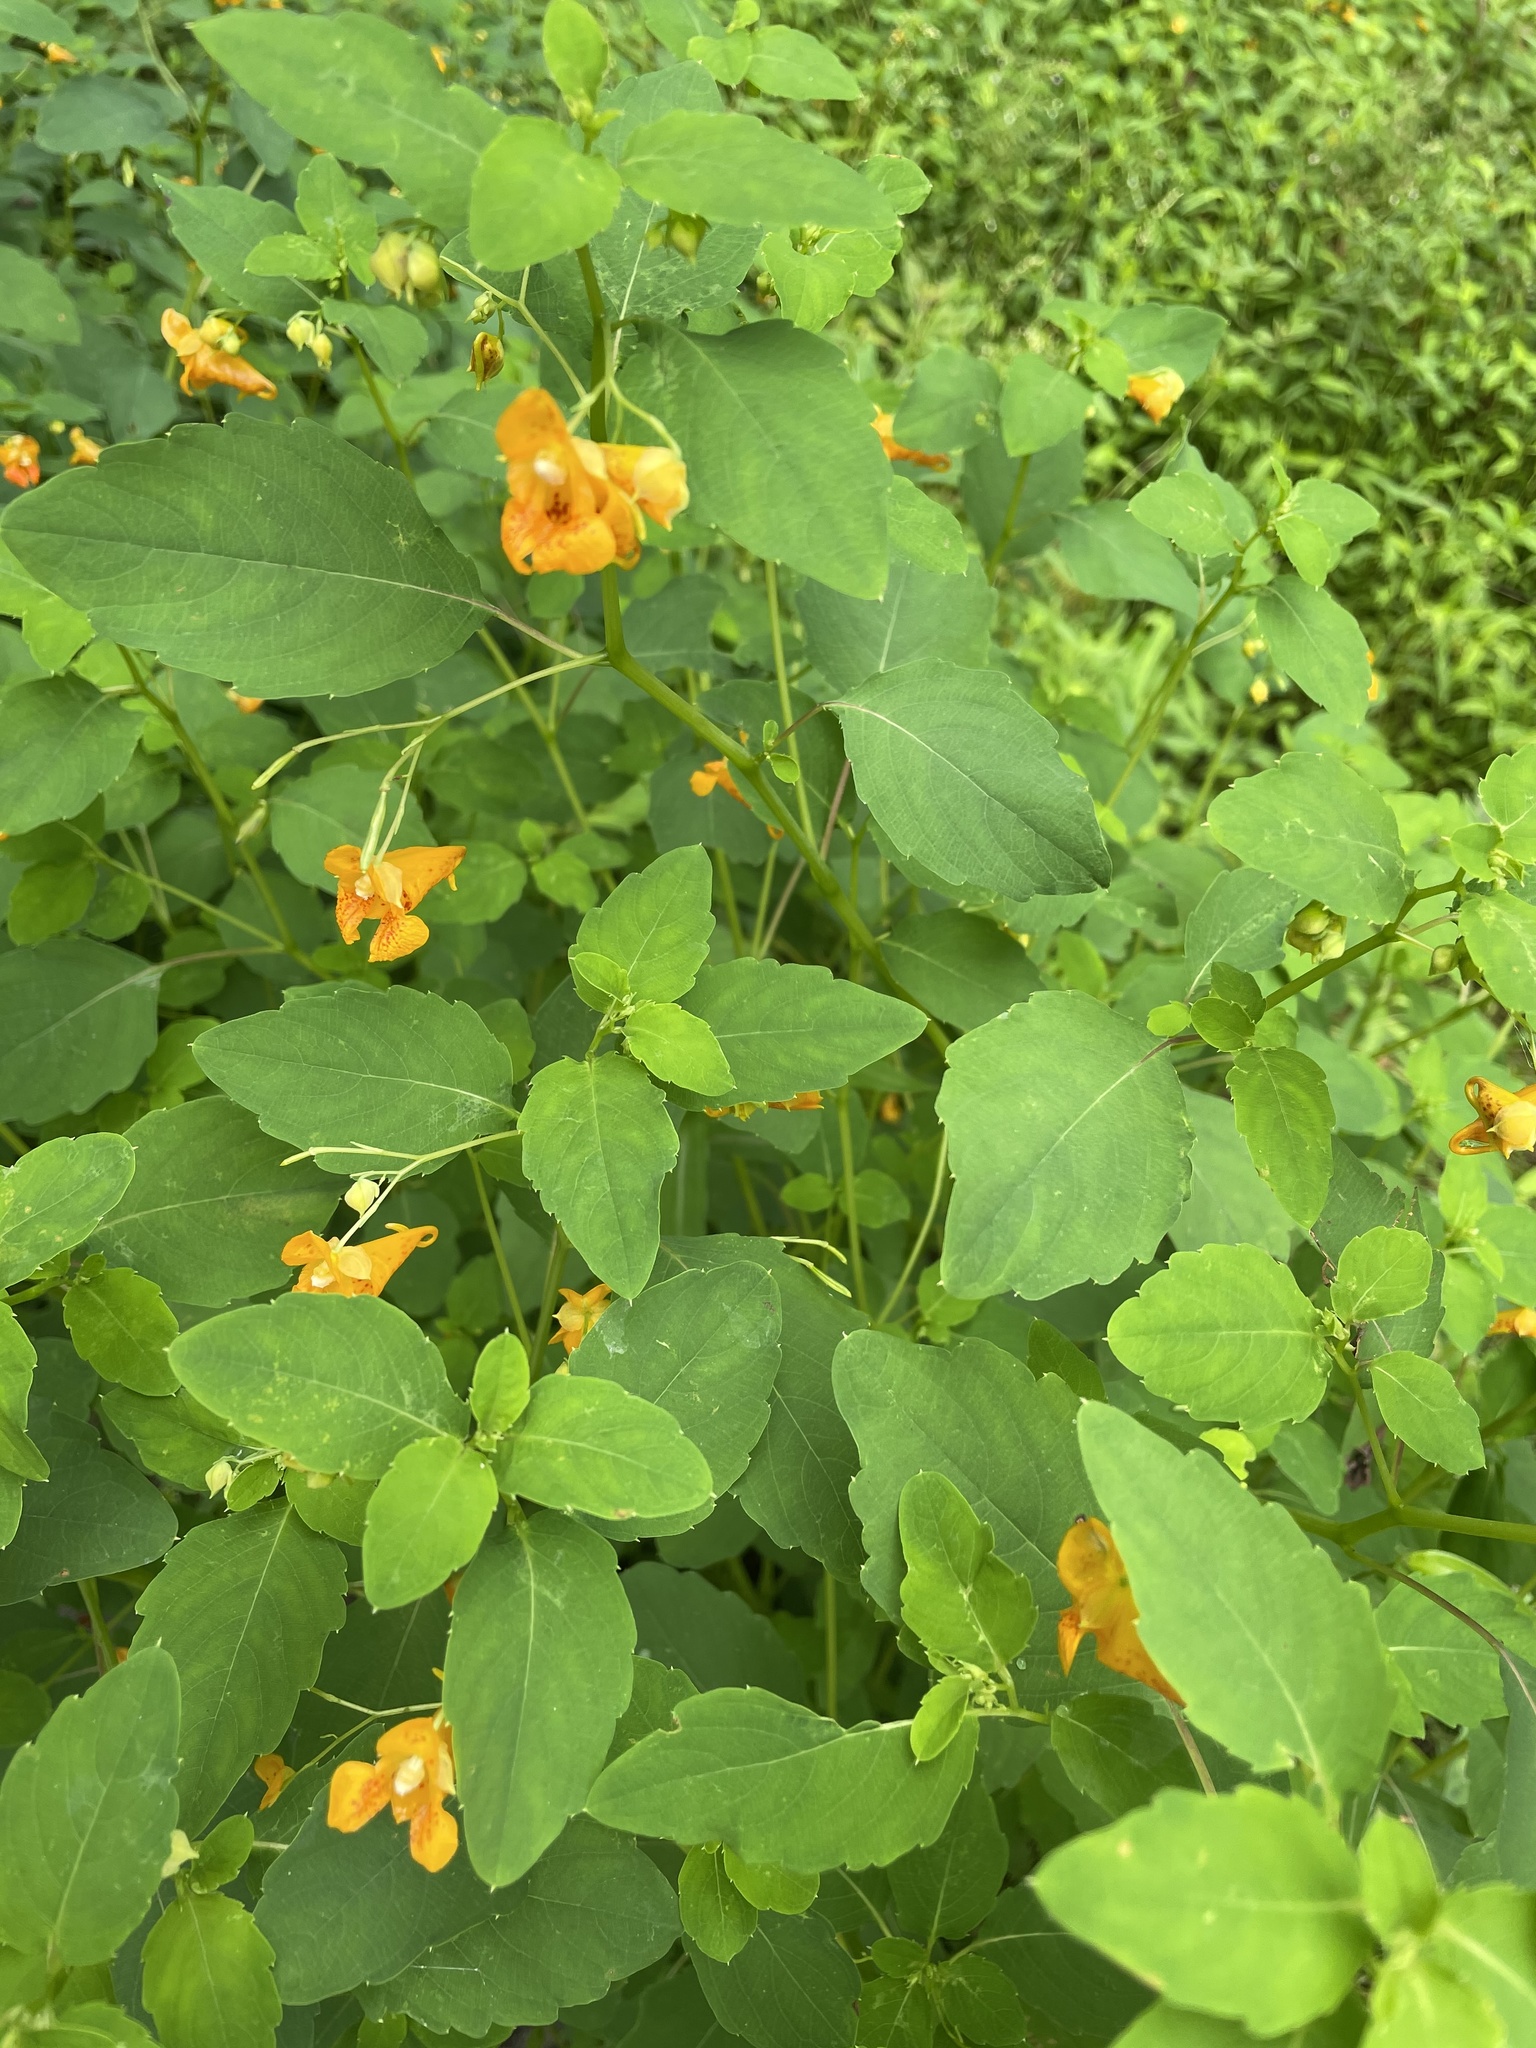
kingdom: Plantae
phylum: Tracheophyta
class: Magnoliopsida
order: Ericales
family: Balsaminaceae
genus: Impatiens
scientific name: Impatiens capensis
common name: Orange balsam
